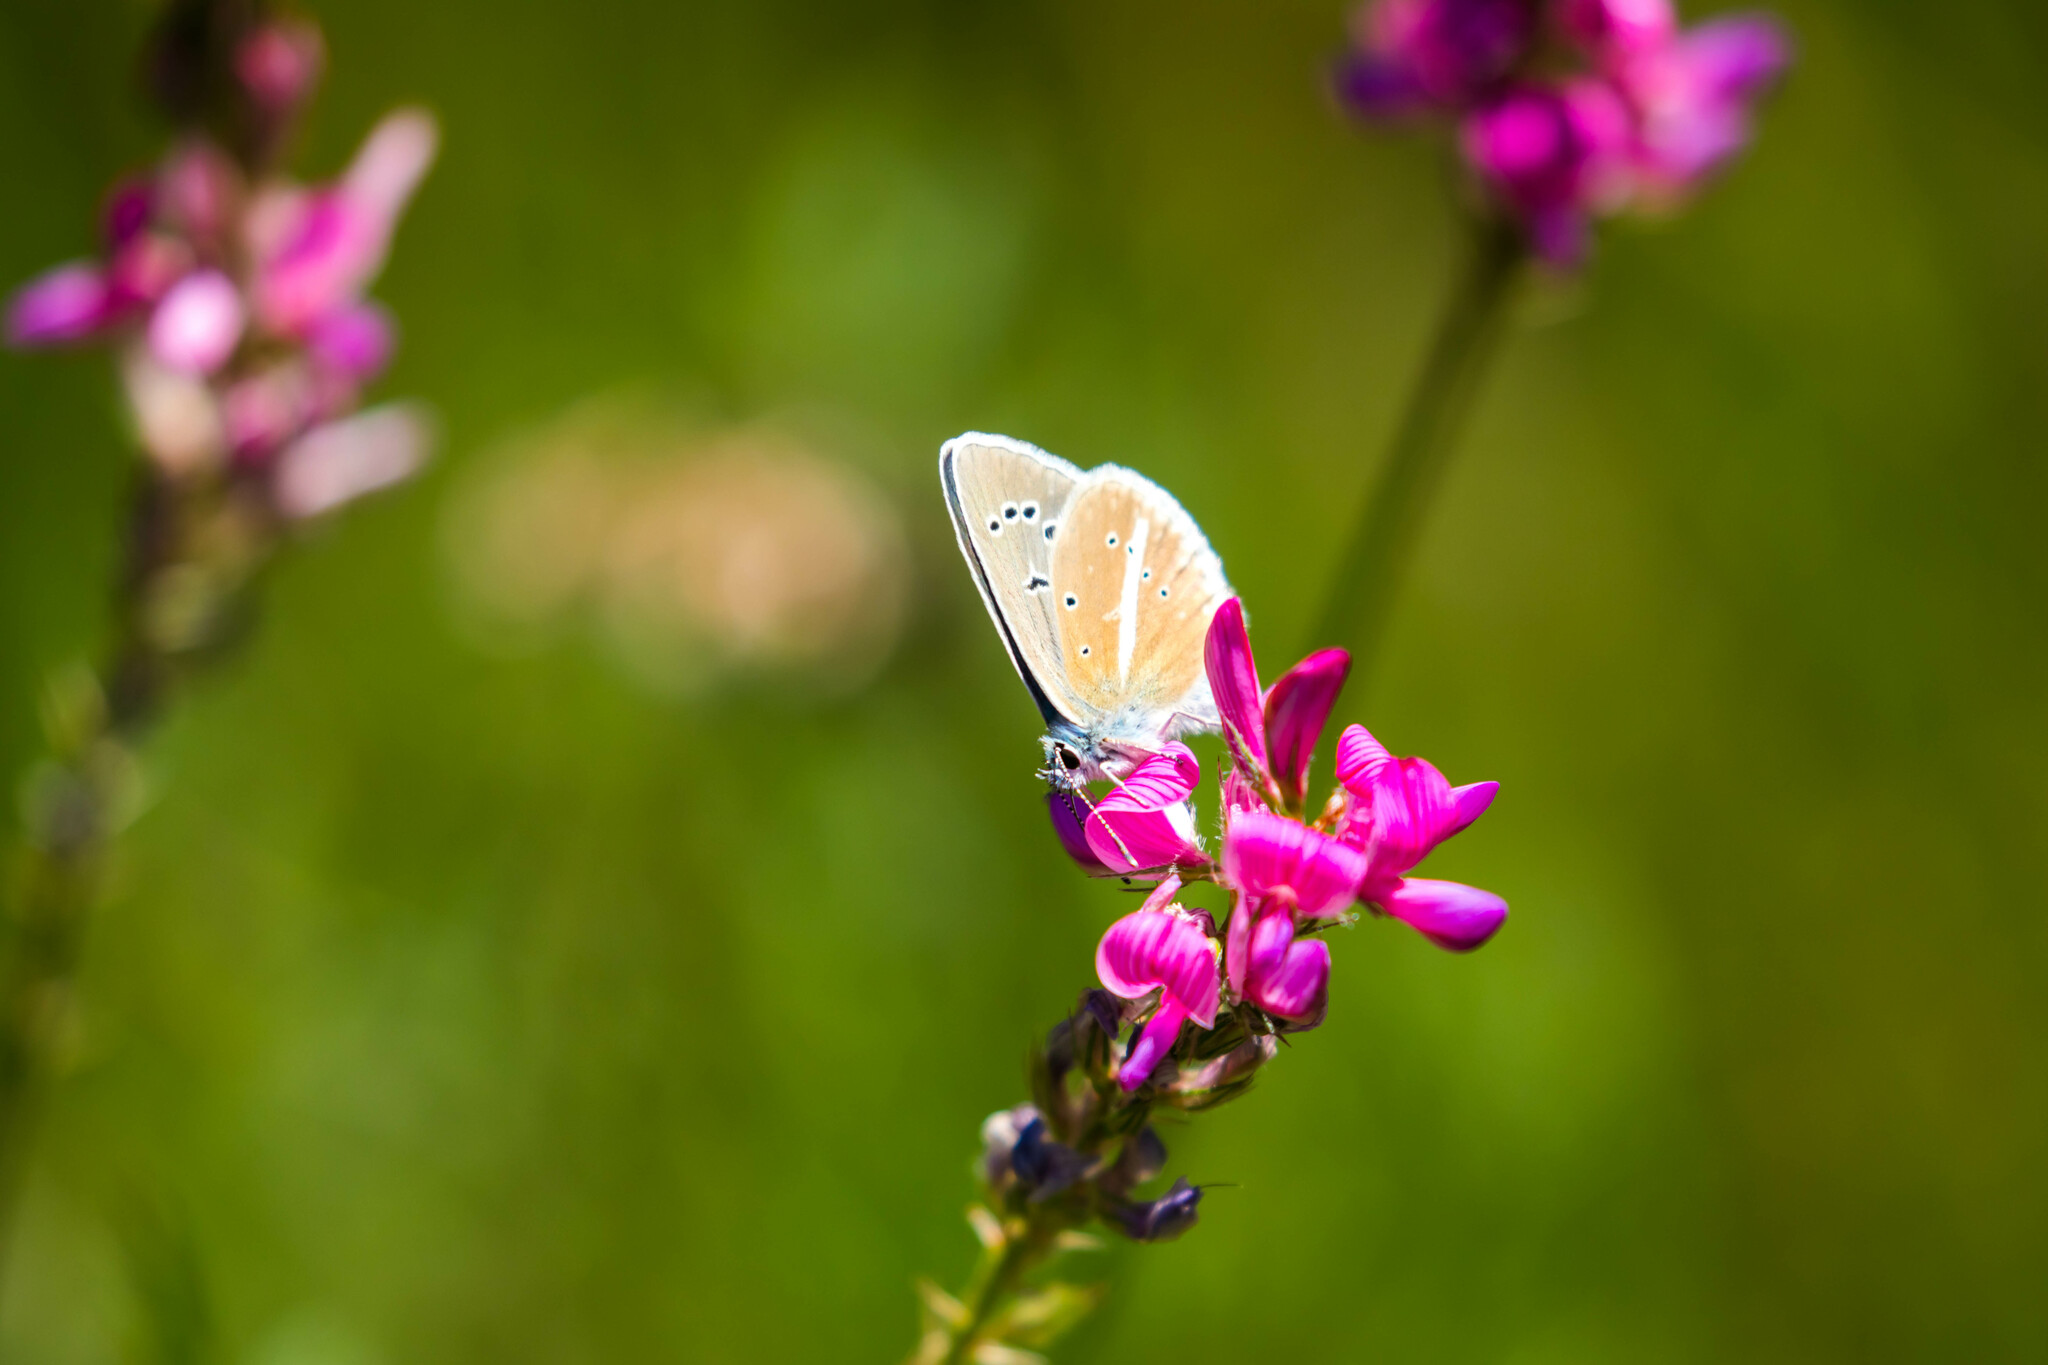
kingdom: Animalia
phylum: Arthropoda
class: Insecta
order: Lepidoptera
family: Lycaenidae
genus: Agrodiaetus
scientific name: Agrodiaetus damon
